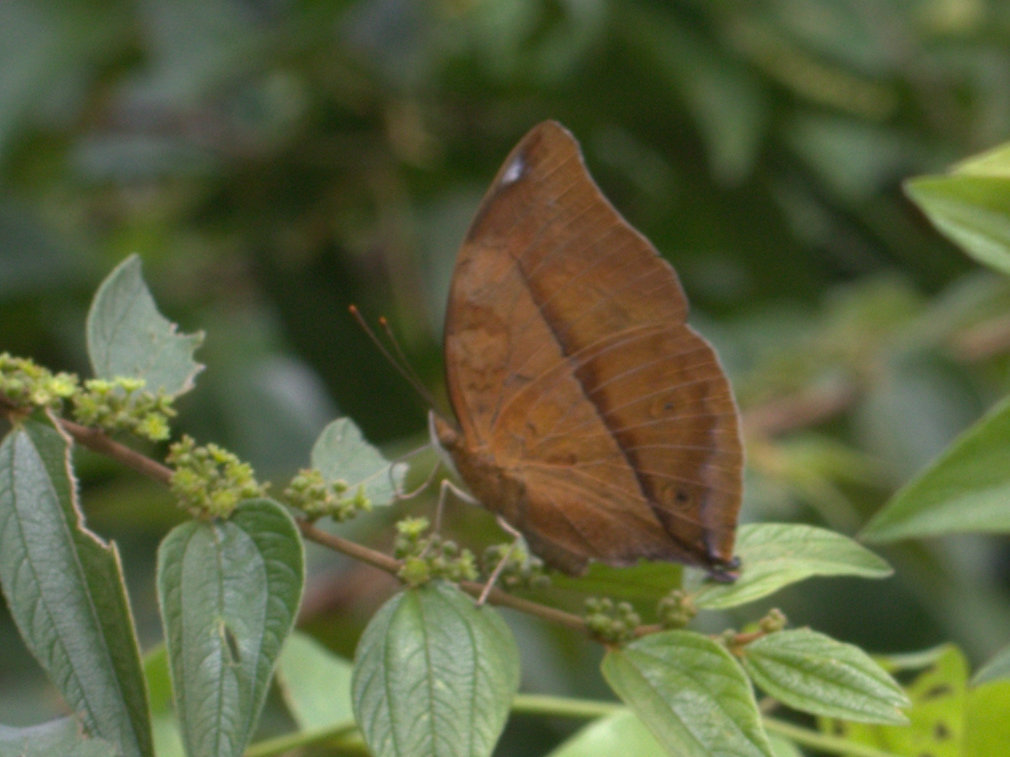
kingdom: Animalia
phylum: Arthropoda
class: Insecta
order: Lepidoptera
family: Nymphalidae
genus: Doleschallia
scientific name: Doleschallia bisaltide
